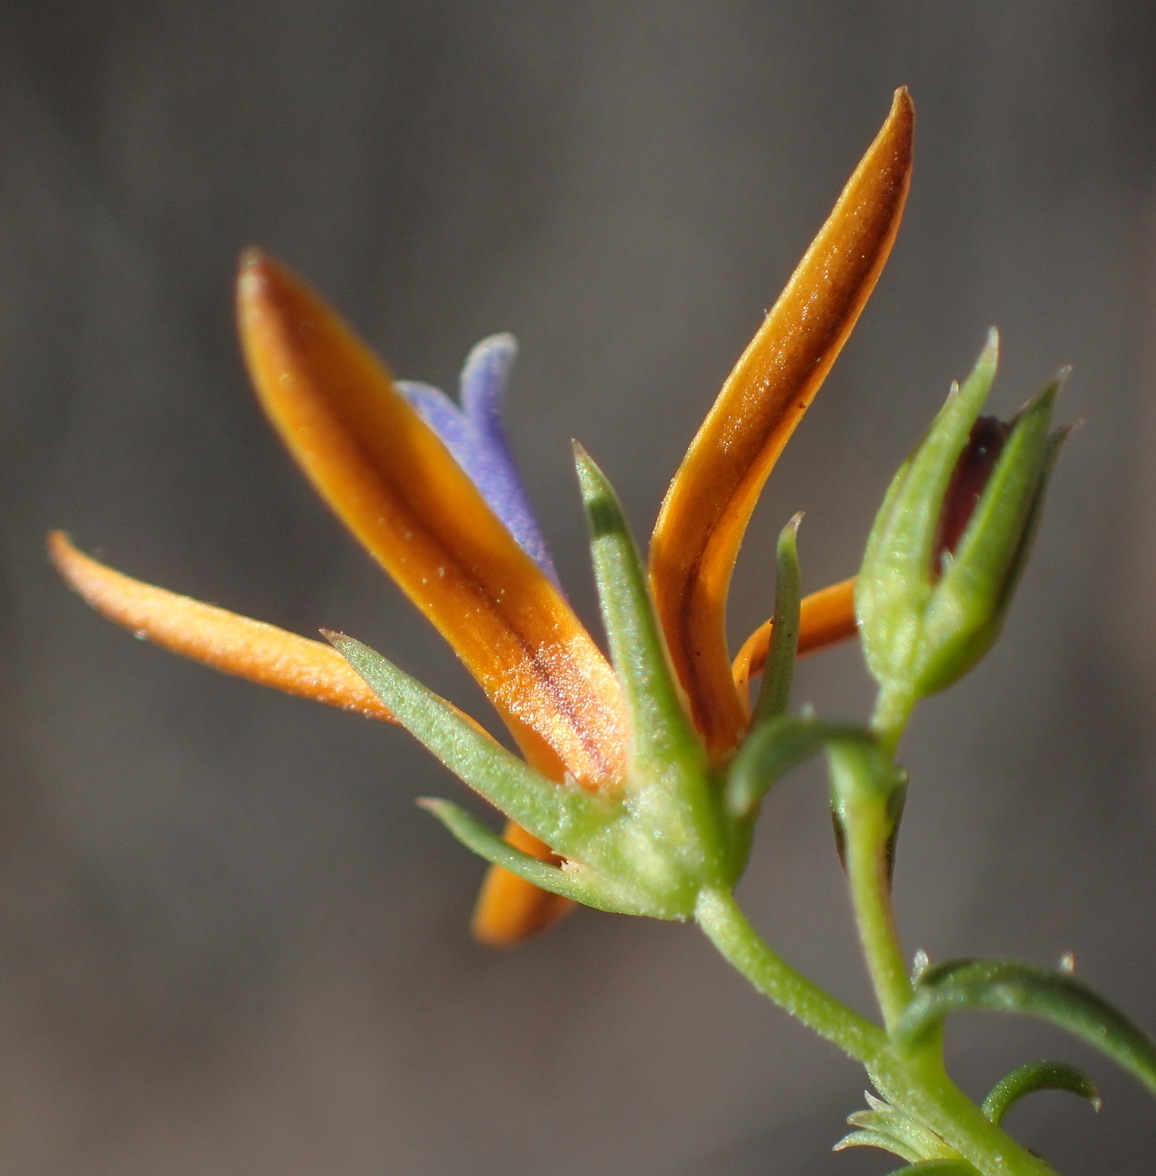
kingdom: Plantae
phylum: Tracheophyta
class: Magnoliopsida
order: Asterales
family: Campanulaceae
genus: Wahlenbergia
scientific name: Wahlenbergia nodosa
